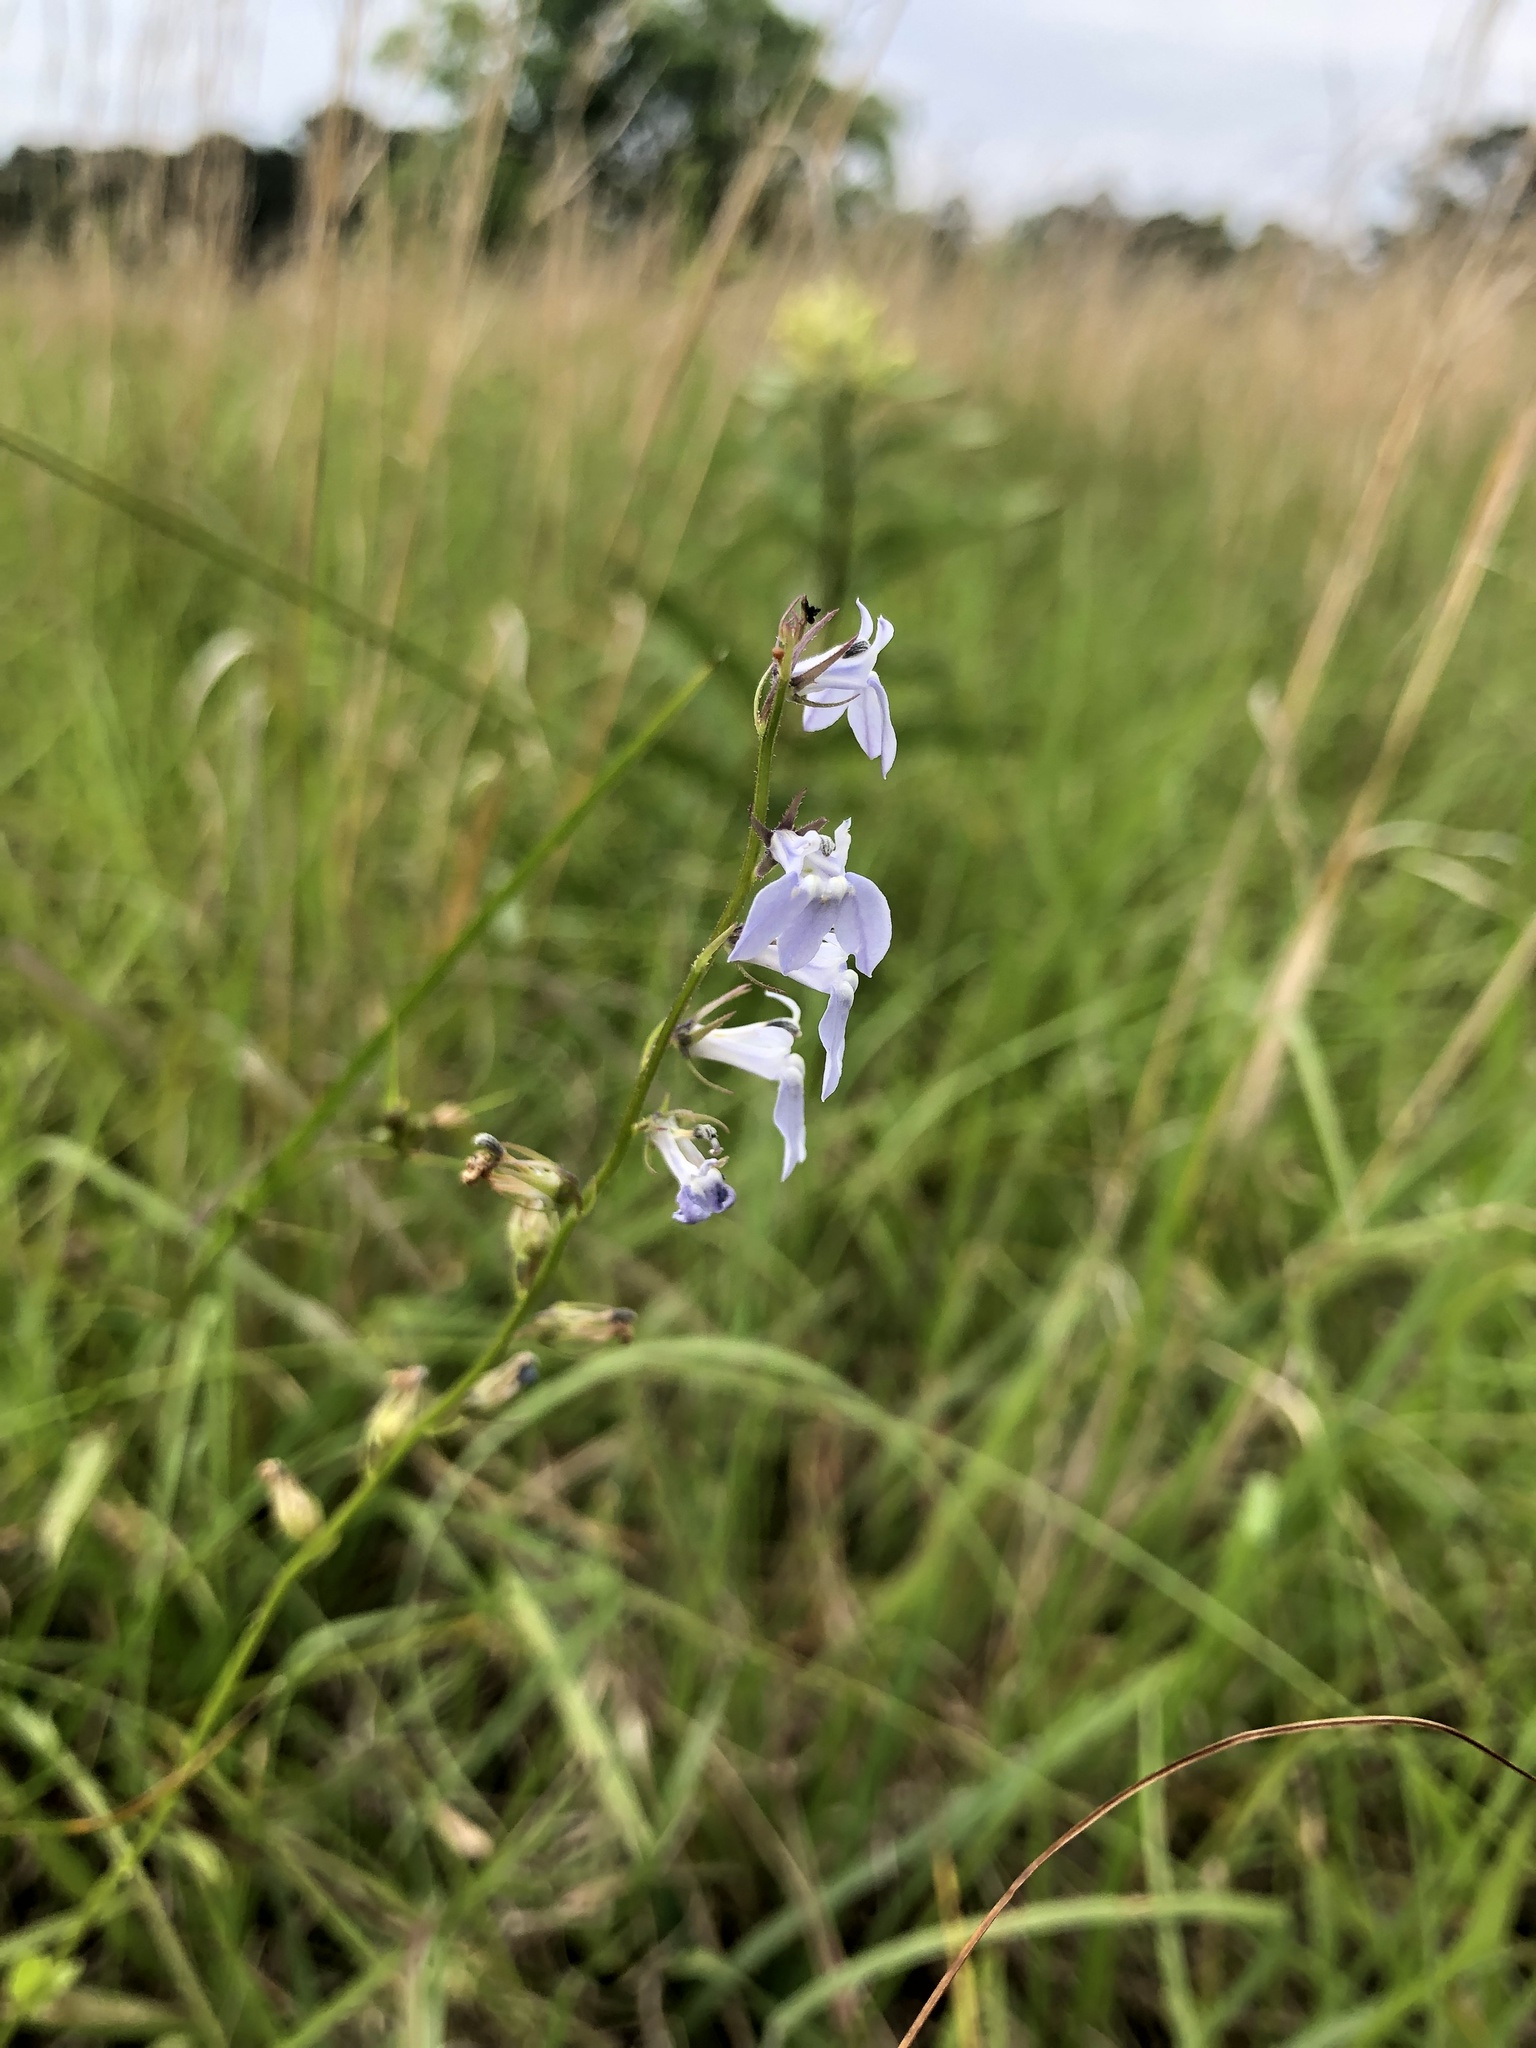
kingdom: Plantae
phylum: Tracheophyta
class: Magnoliopsida
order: Asterales
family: Campanulaceae
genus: Lobelia
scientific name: Lobelia appendiculata
